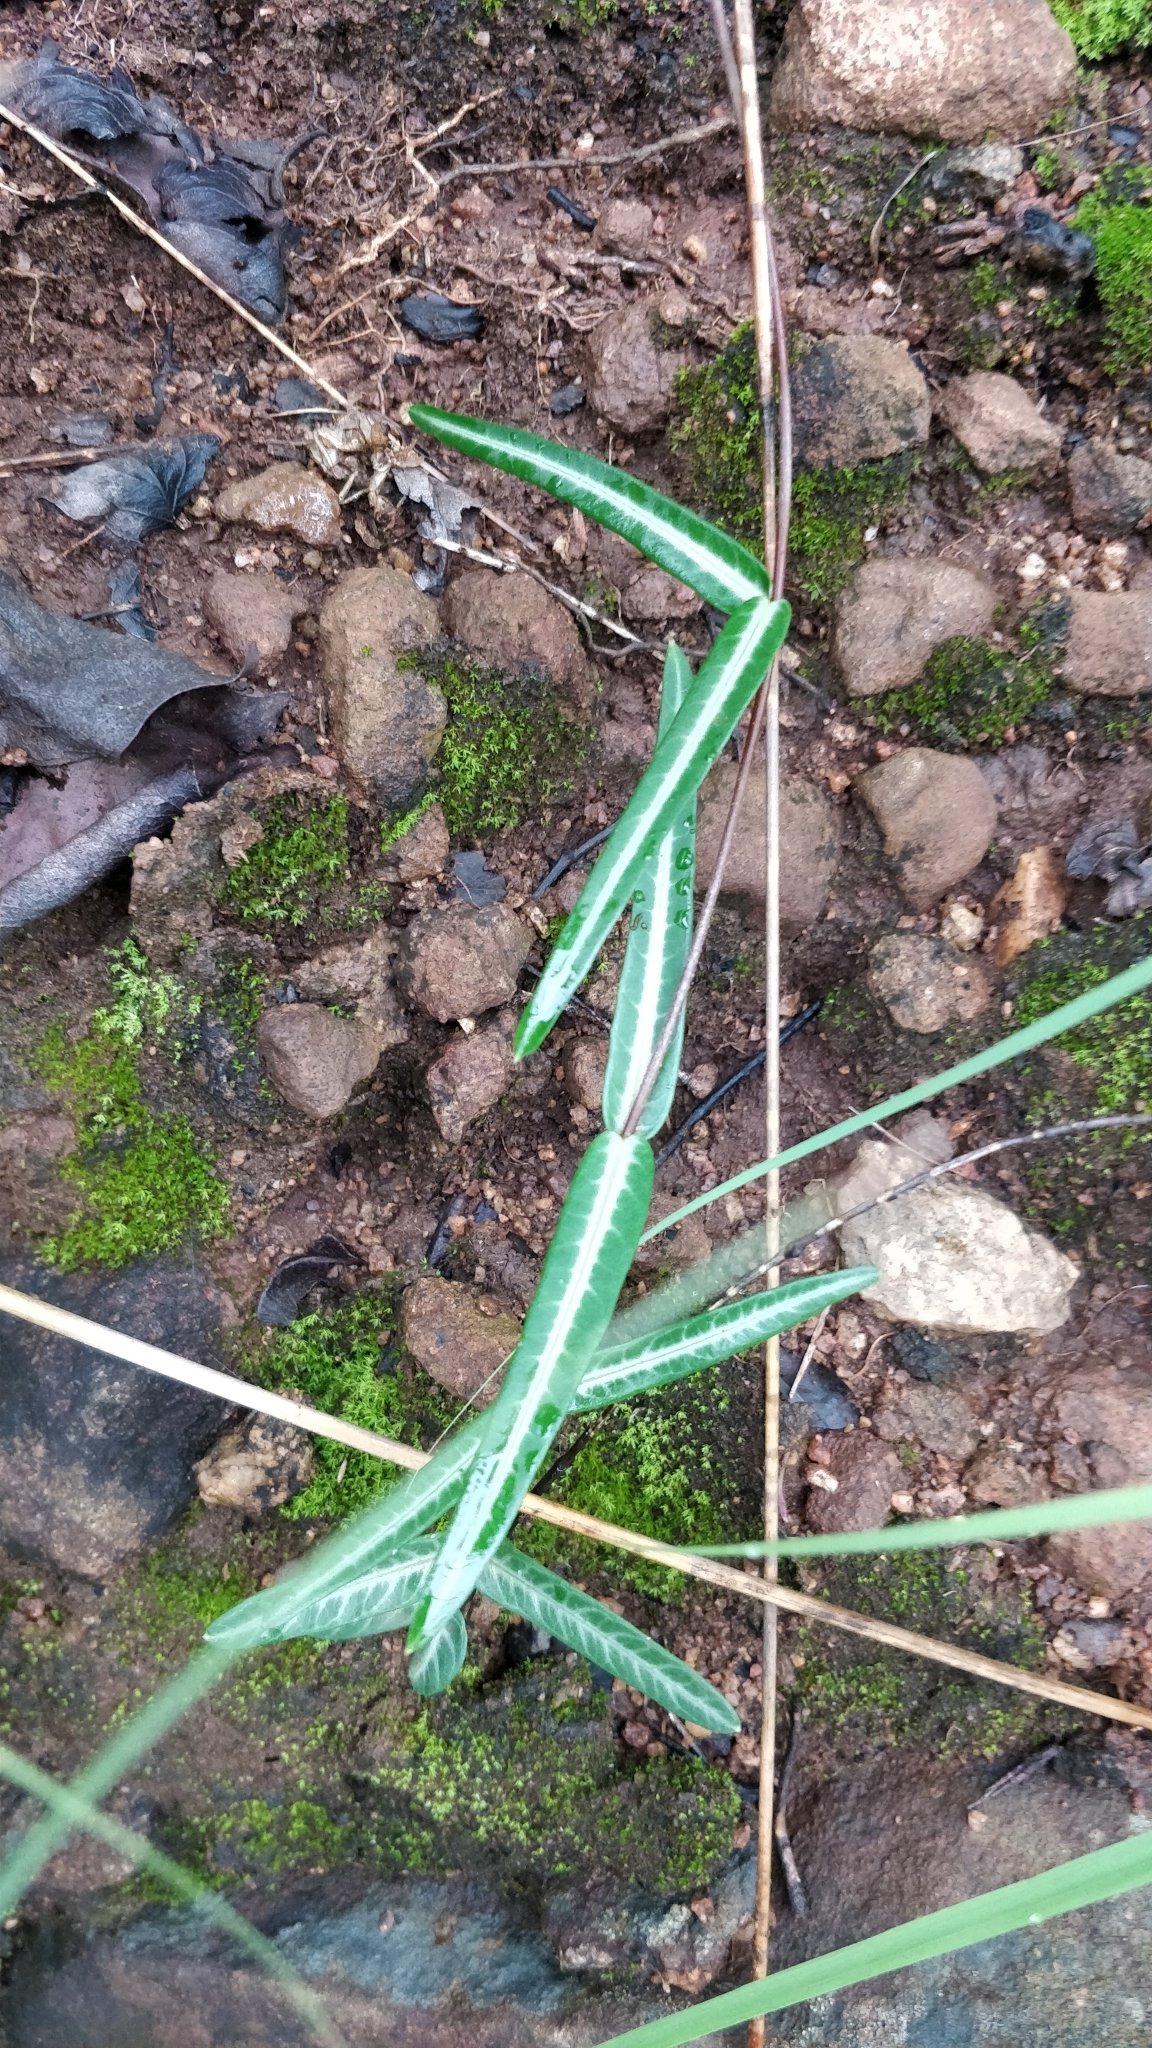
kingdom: Plantae
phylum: Tracheophyta
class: Magnoliopsida
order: Gentianales
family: Apocynaceae
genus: Hemidesmus
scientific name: Hemidesmus indicus
